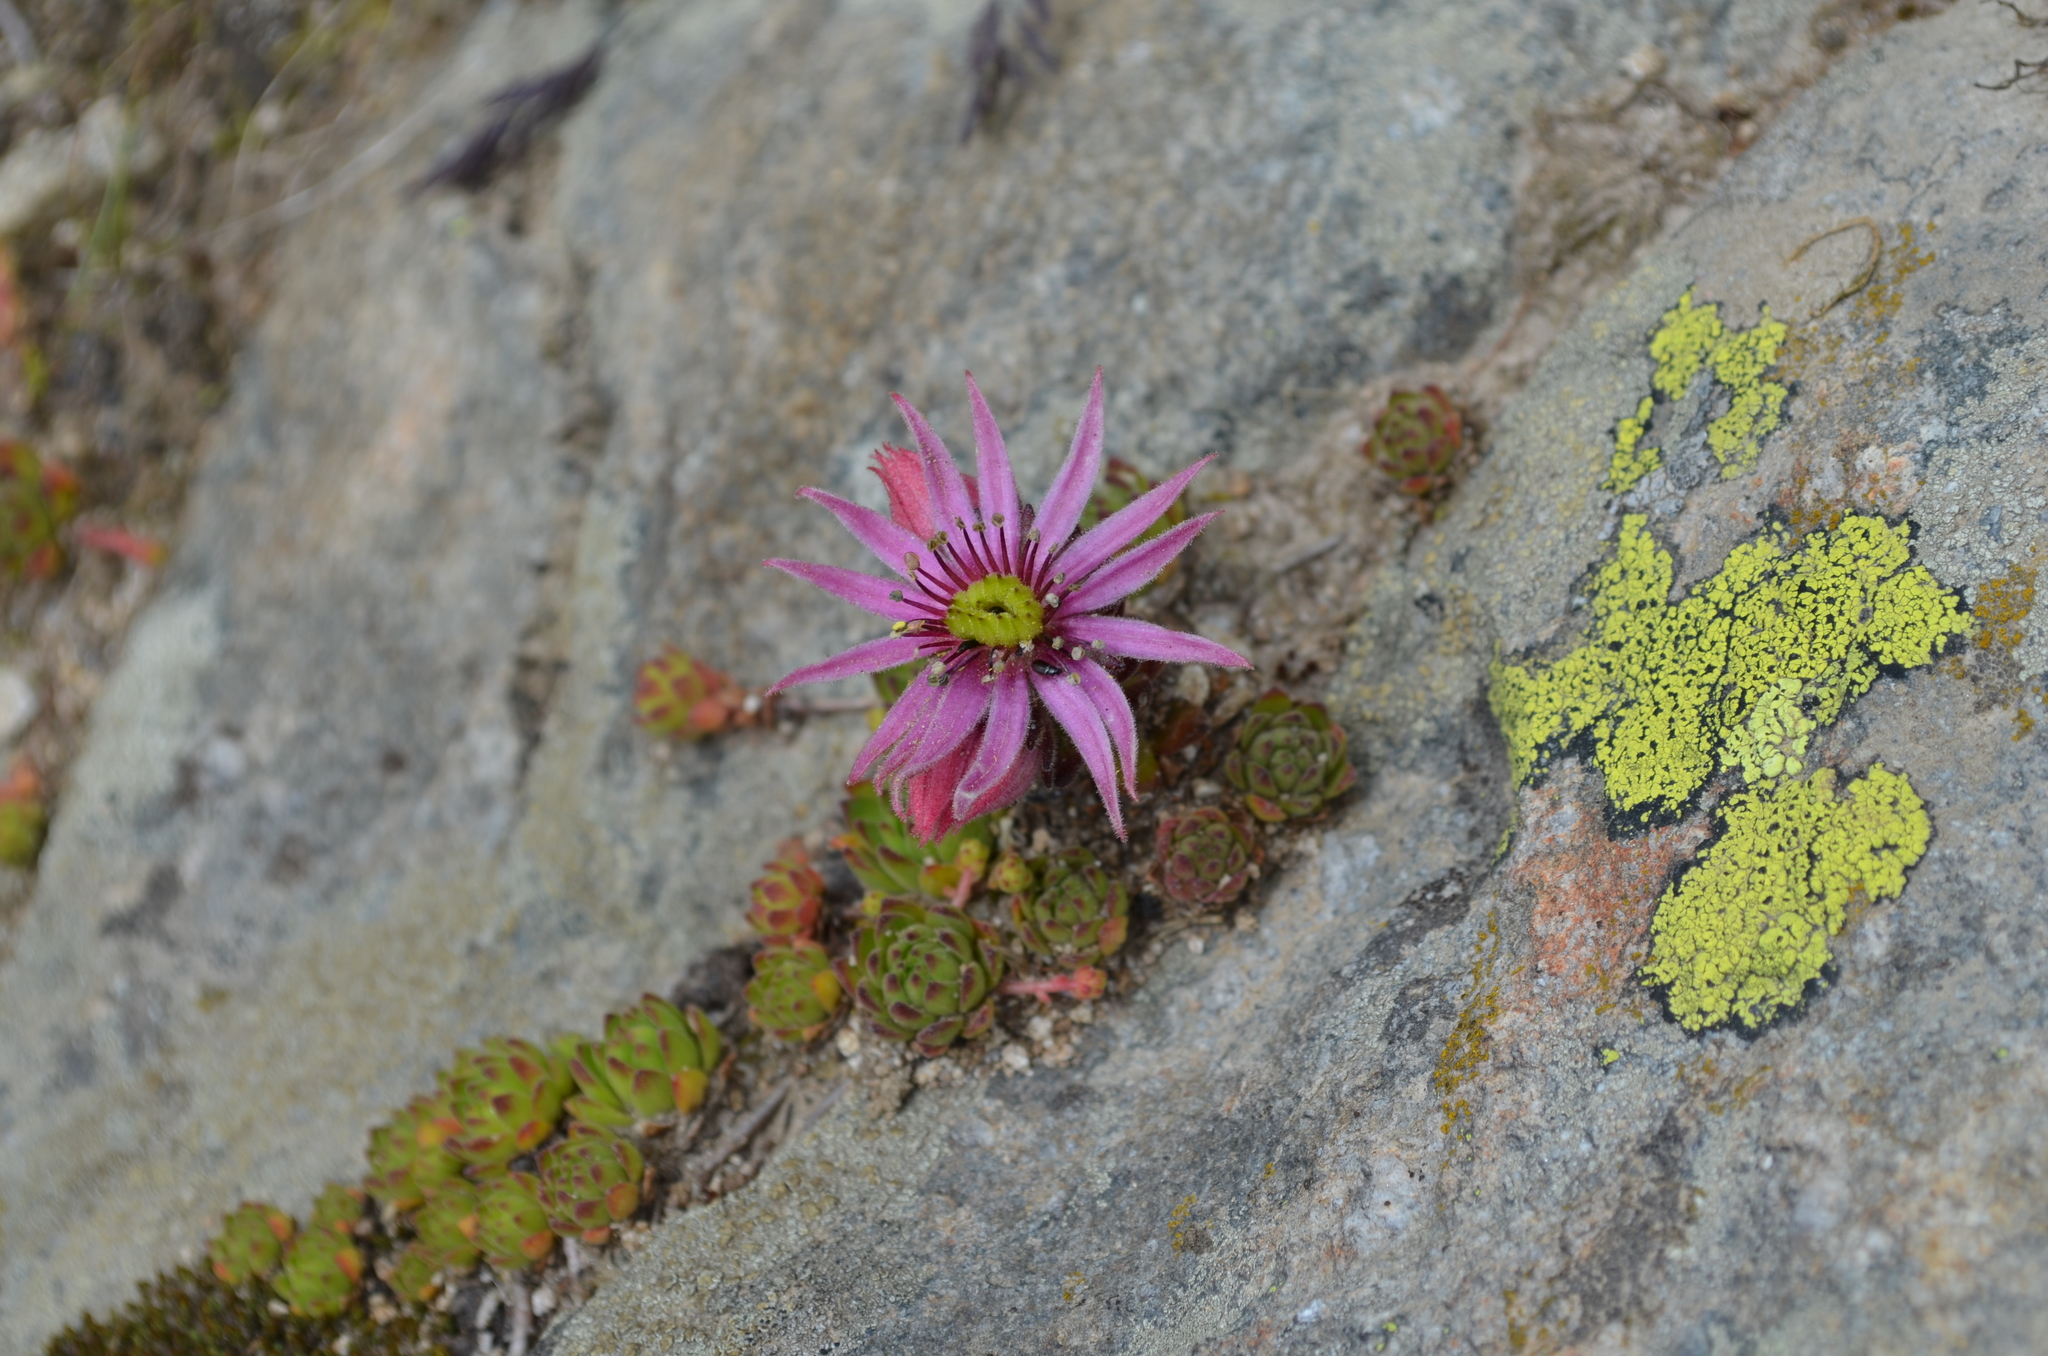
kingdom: Plantae
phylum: Tracheophyta
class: Magnoliopsida
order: Saxifragales
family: Crassulaceae
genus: Sempervivum
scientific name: Sempervivum montanum
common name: Mountain house-leek
